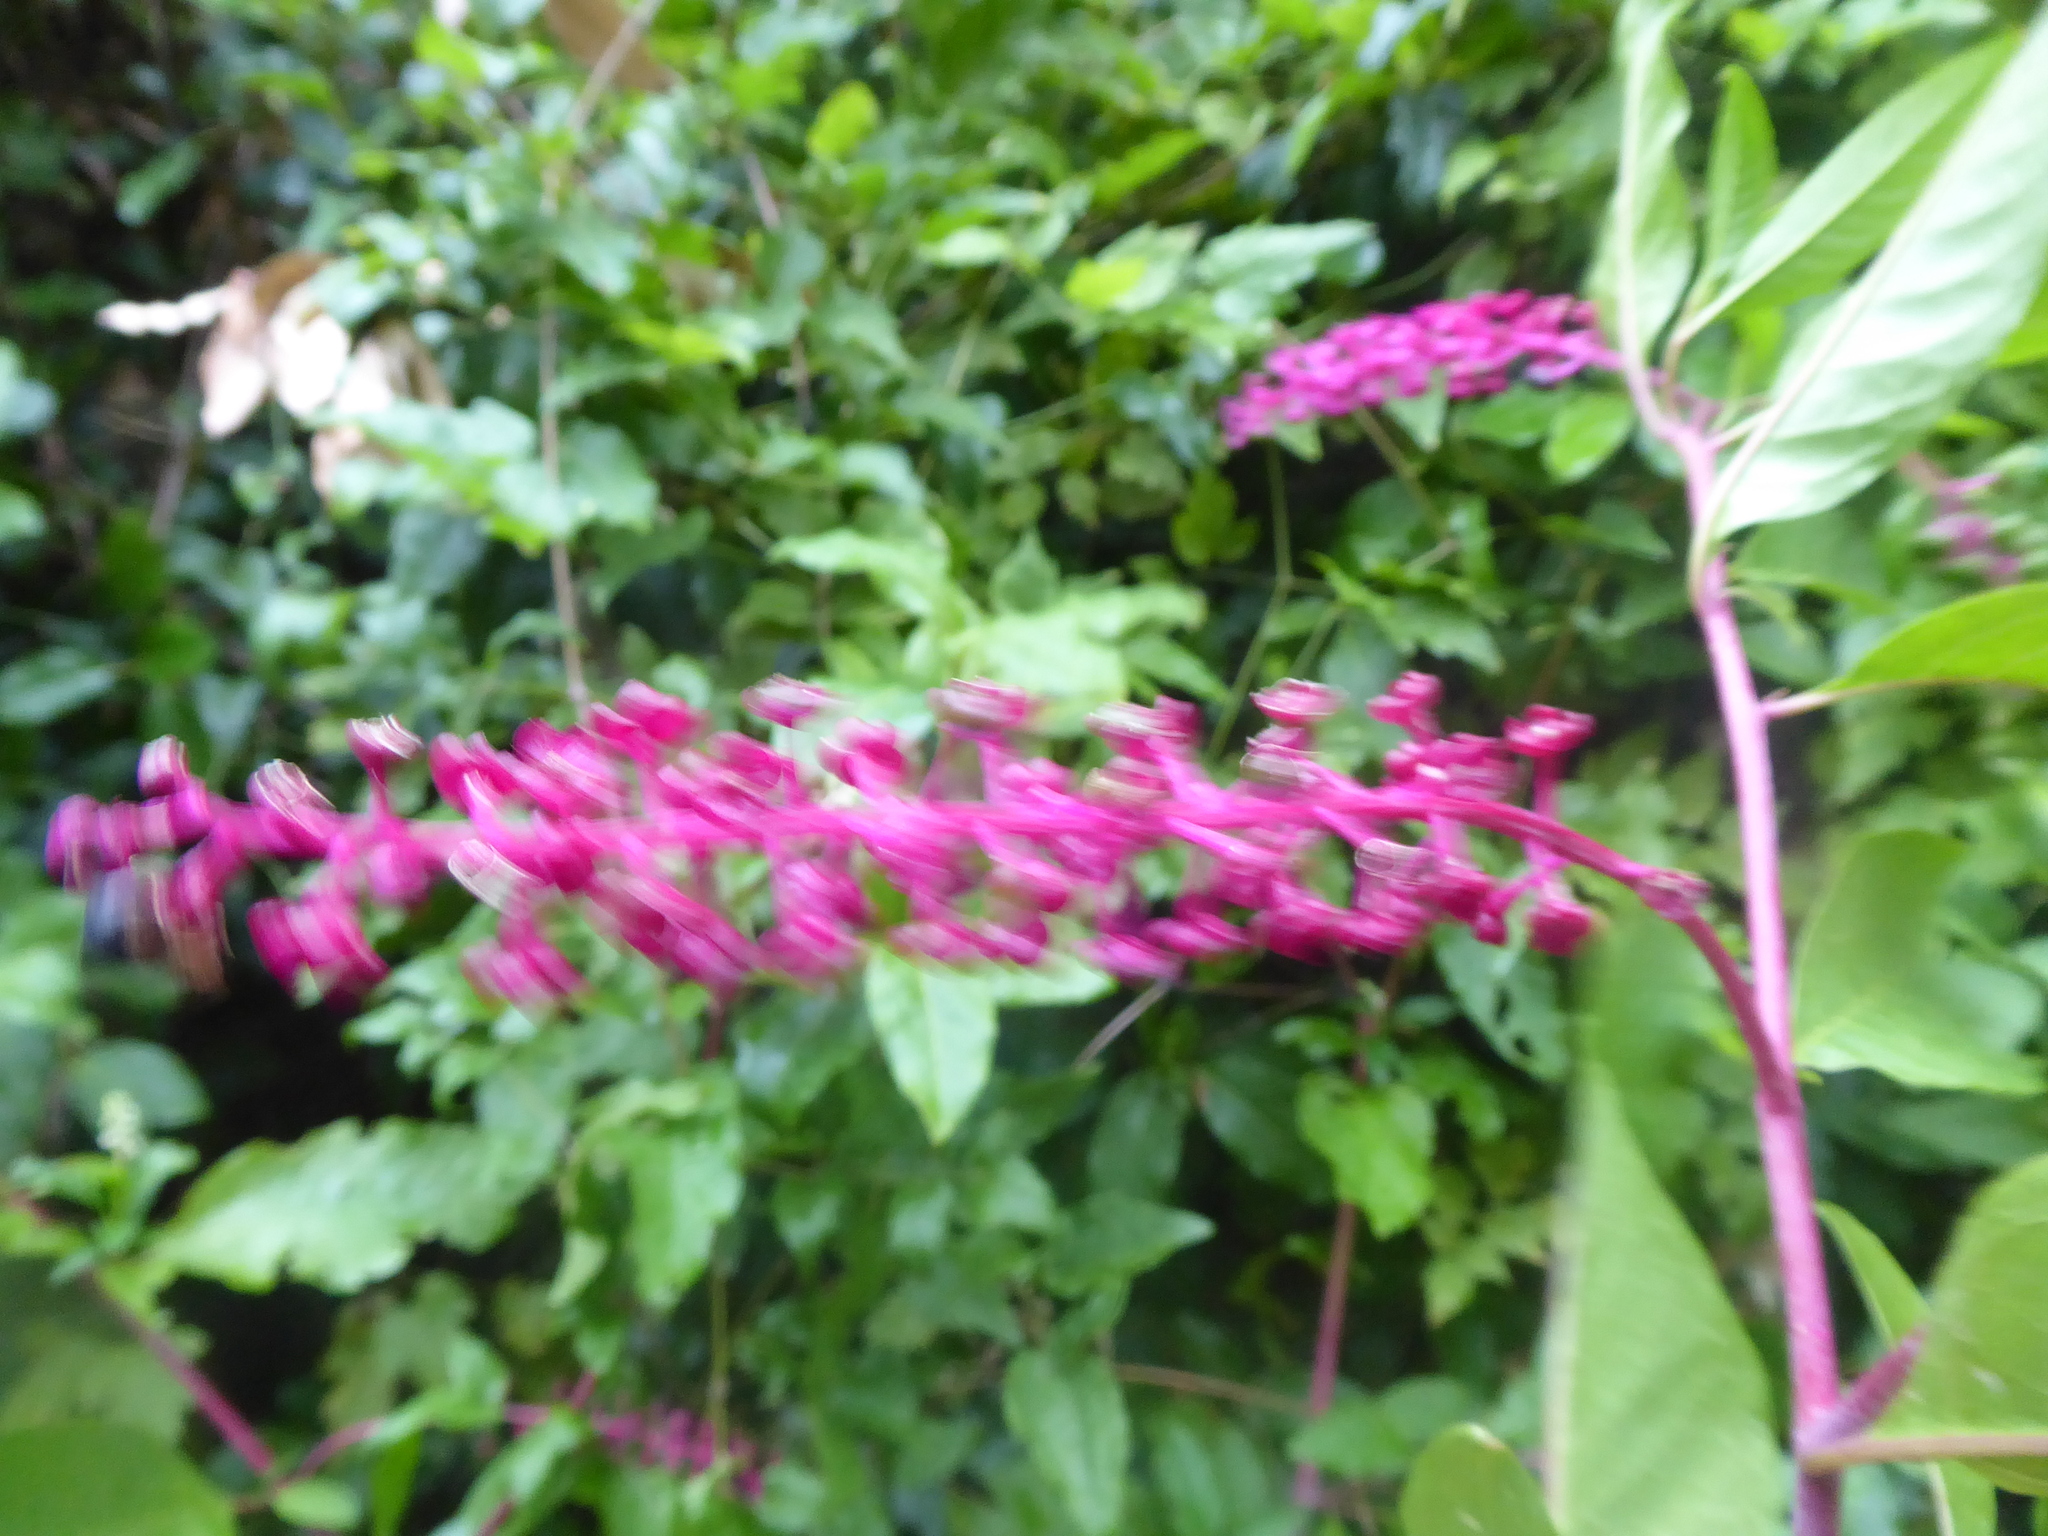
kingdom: Plantae
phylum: Tracheophyta
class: Magnoliopsida
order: Caryophyllales
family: Phytolaccaceae
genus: Phytolacca
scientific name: Phytolacca americana
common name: American pokeweed
